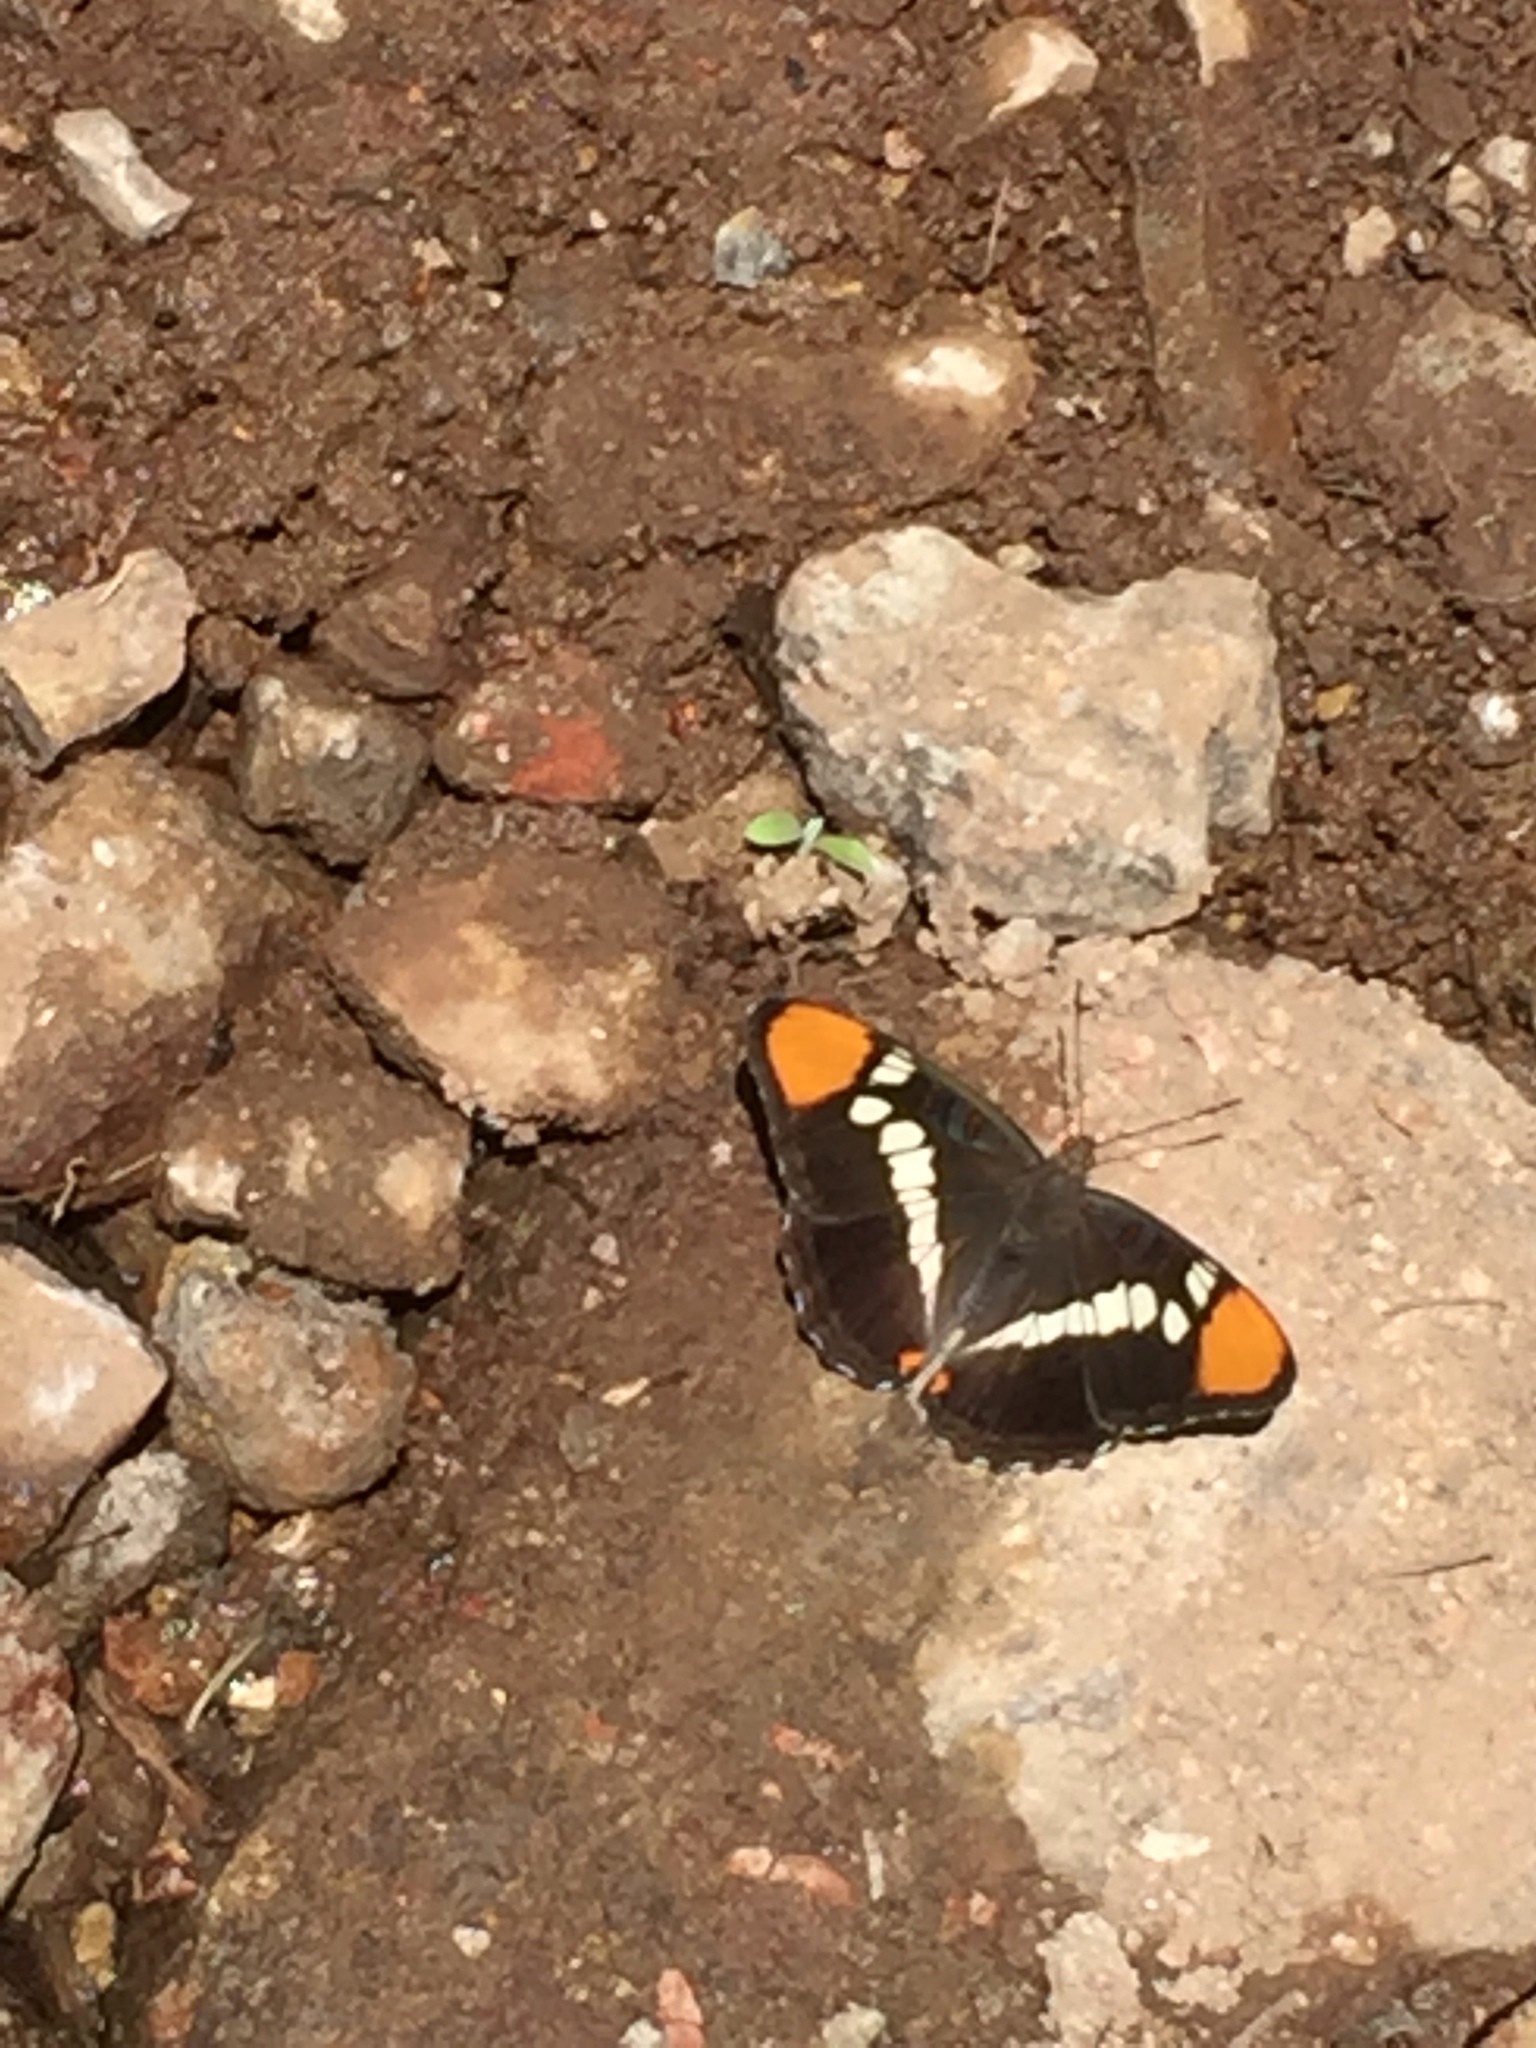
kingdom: Animalia
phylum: Arthropoda
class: Insecta
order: Lepidoptera
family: Nymphalidae
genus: Limenitis
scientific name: Limenitis bredowii
